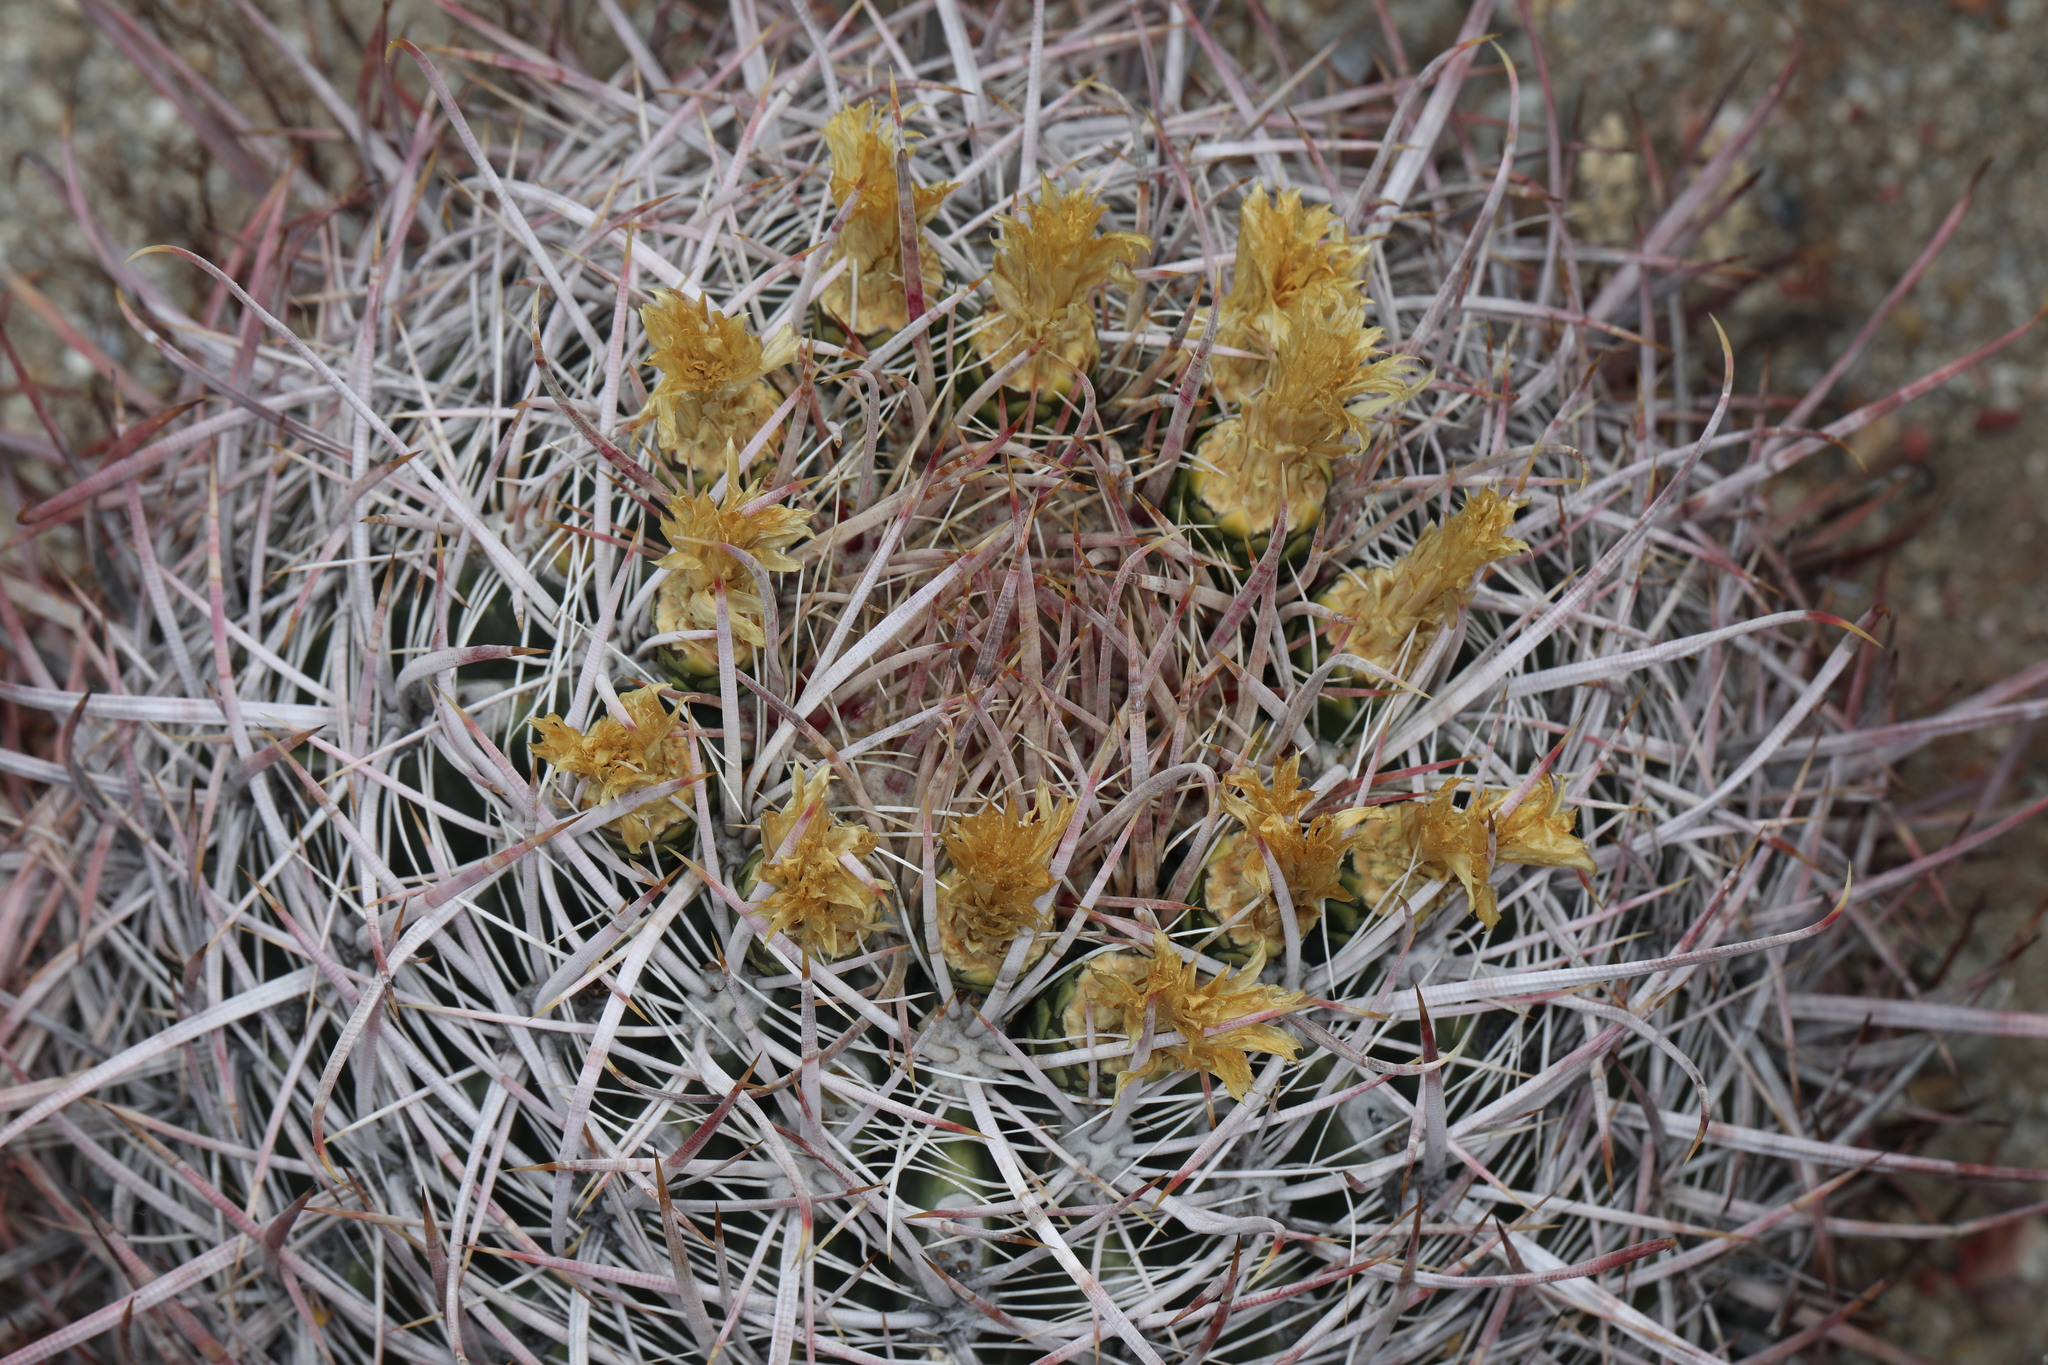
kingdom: Plantae
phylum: Tracheophyta
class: Magnoliopsida
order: Caryophyllales
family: Cactaceae
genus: Ferocactus
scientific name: Ferocactus cylindraceus
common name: California barrel cactus
